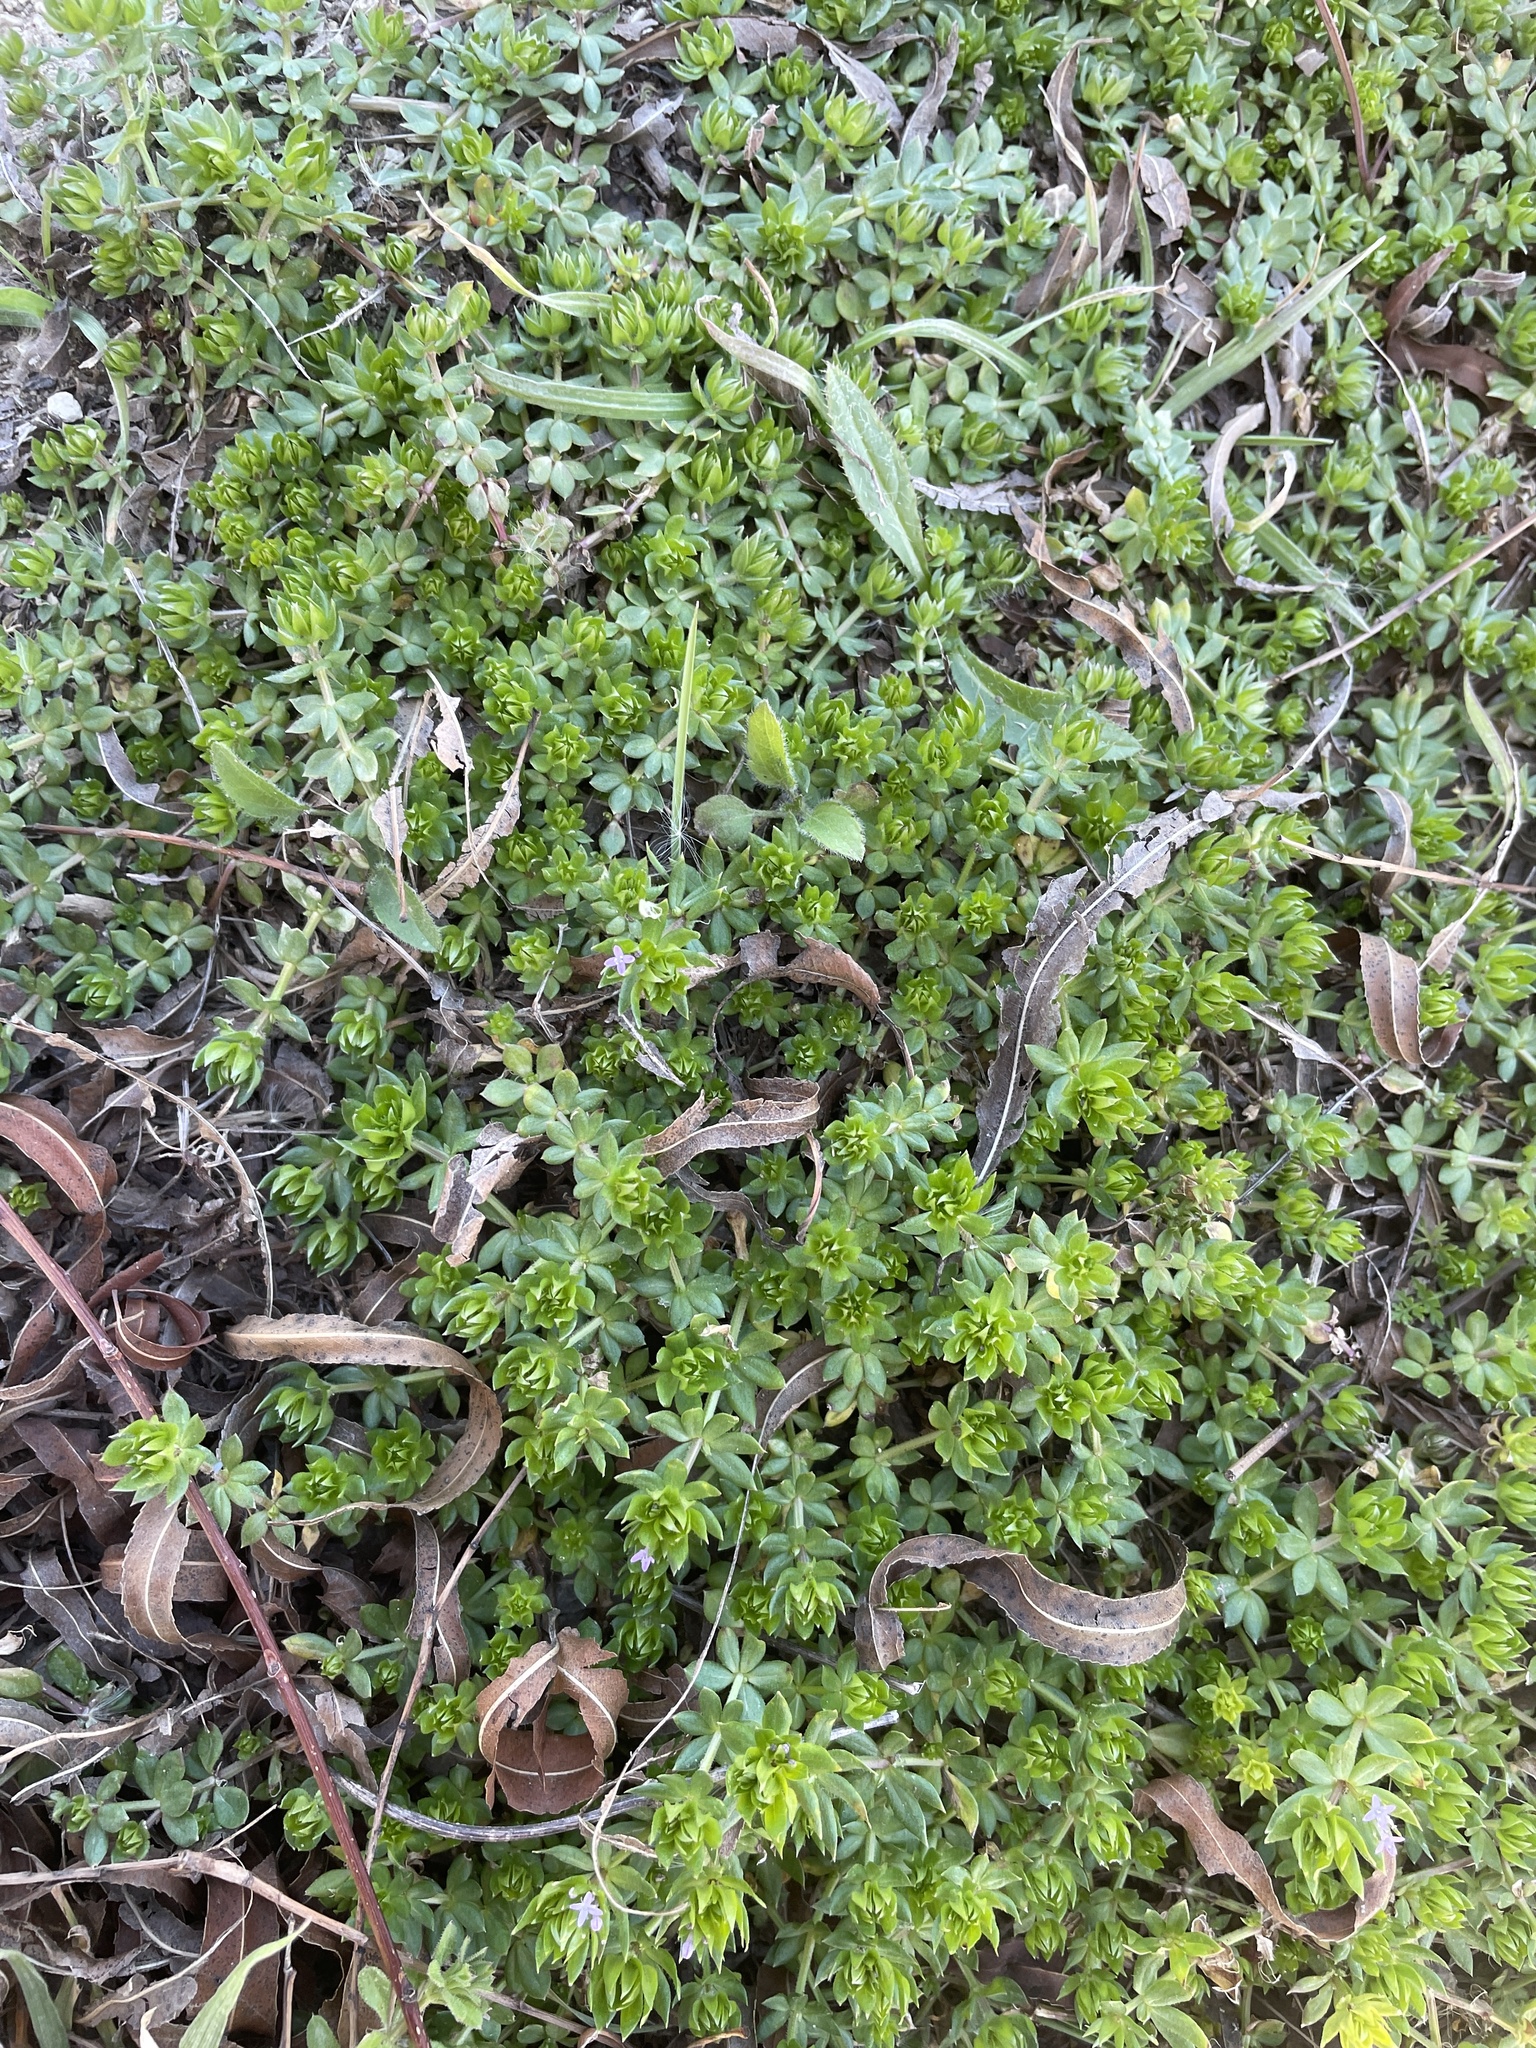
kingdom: Plantae
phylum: Tracheophyta
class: Magnoliopsida
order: Gentianales
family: Rubiaceae
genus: Sherardia
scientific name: Sherardia arvensis
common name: Field madder
